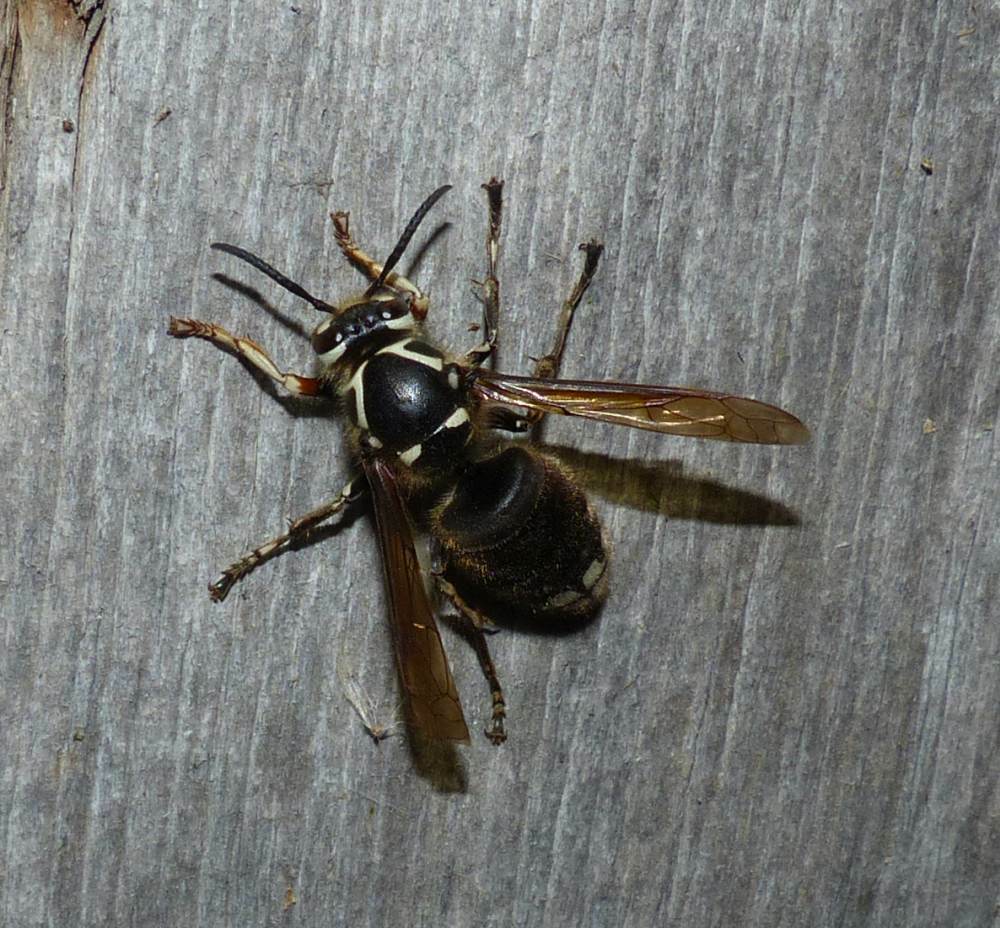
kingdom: Animalia
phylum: Arthropoda
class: Insecta
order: Hymenoptera
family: Vespidae
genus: Dolichovespula
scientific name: Dolichovespula maculata
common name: Bald-faced hornet
